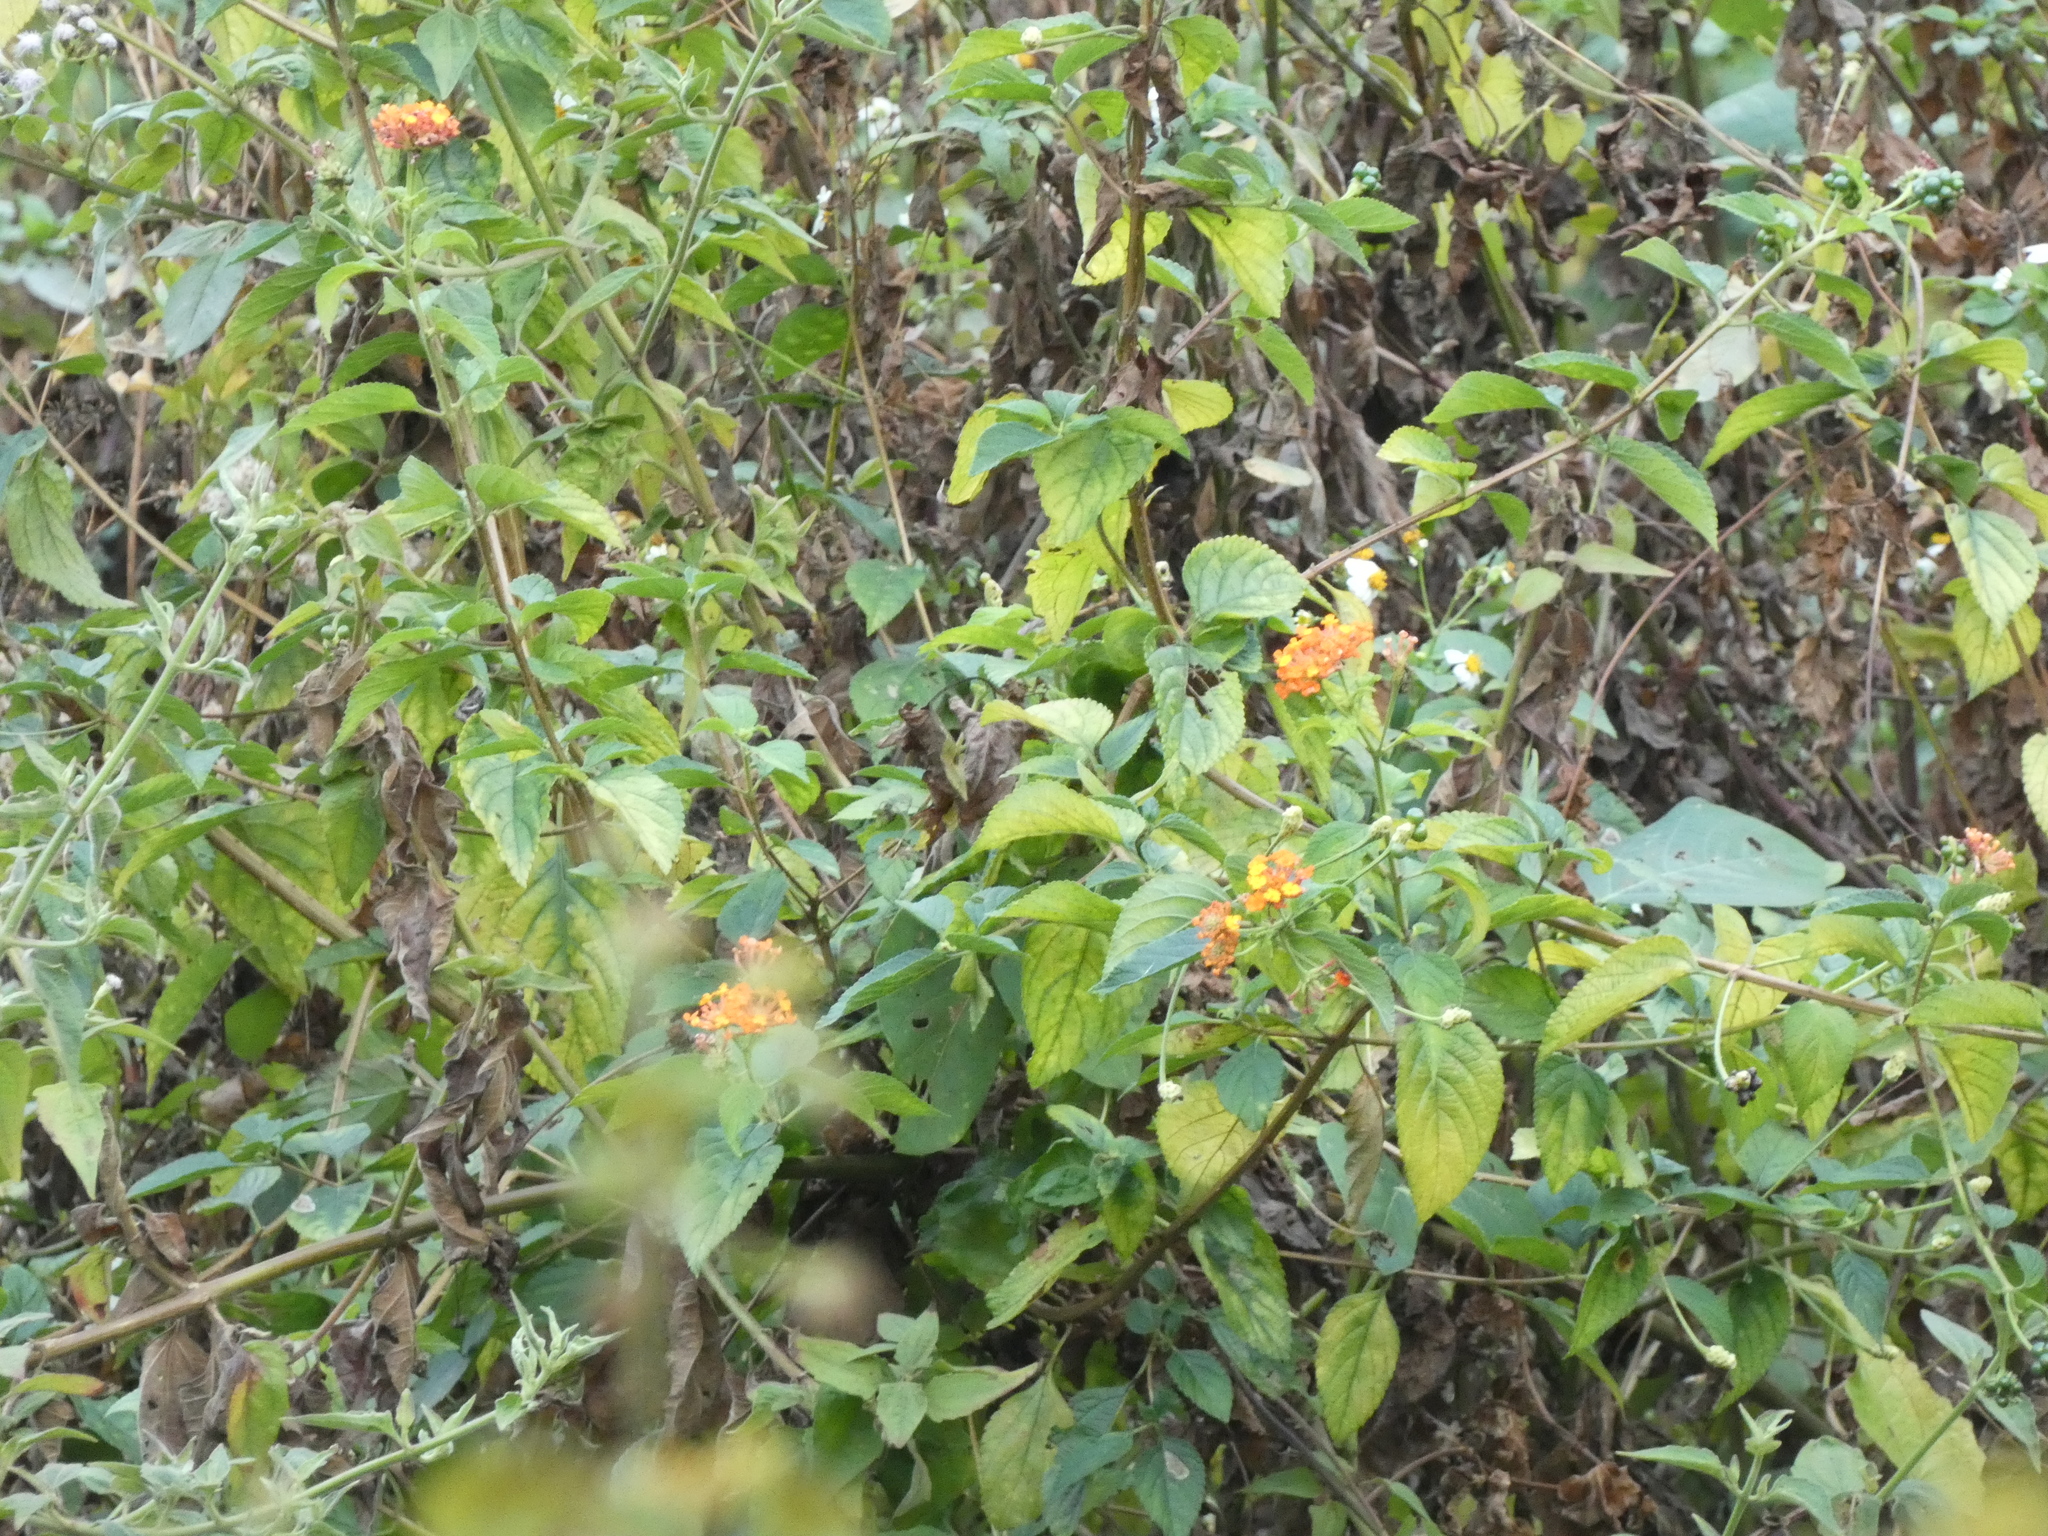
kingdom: Plantae
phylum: Tracheophyta
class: Magnoliopsida
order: Lamiales
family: Verbenaceae
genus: Lantana
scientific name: Lantana camara
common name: Lantana
